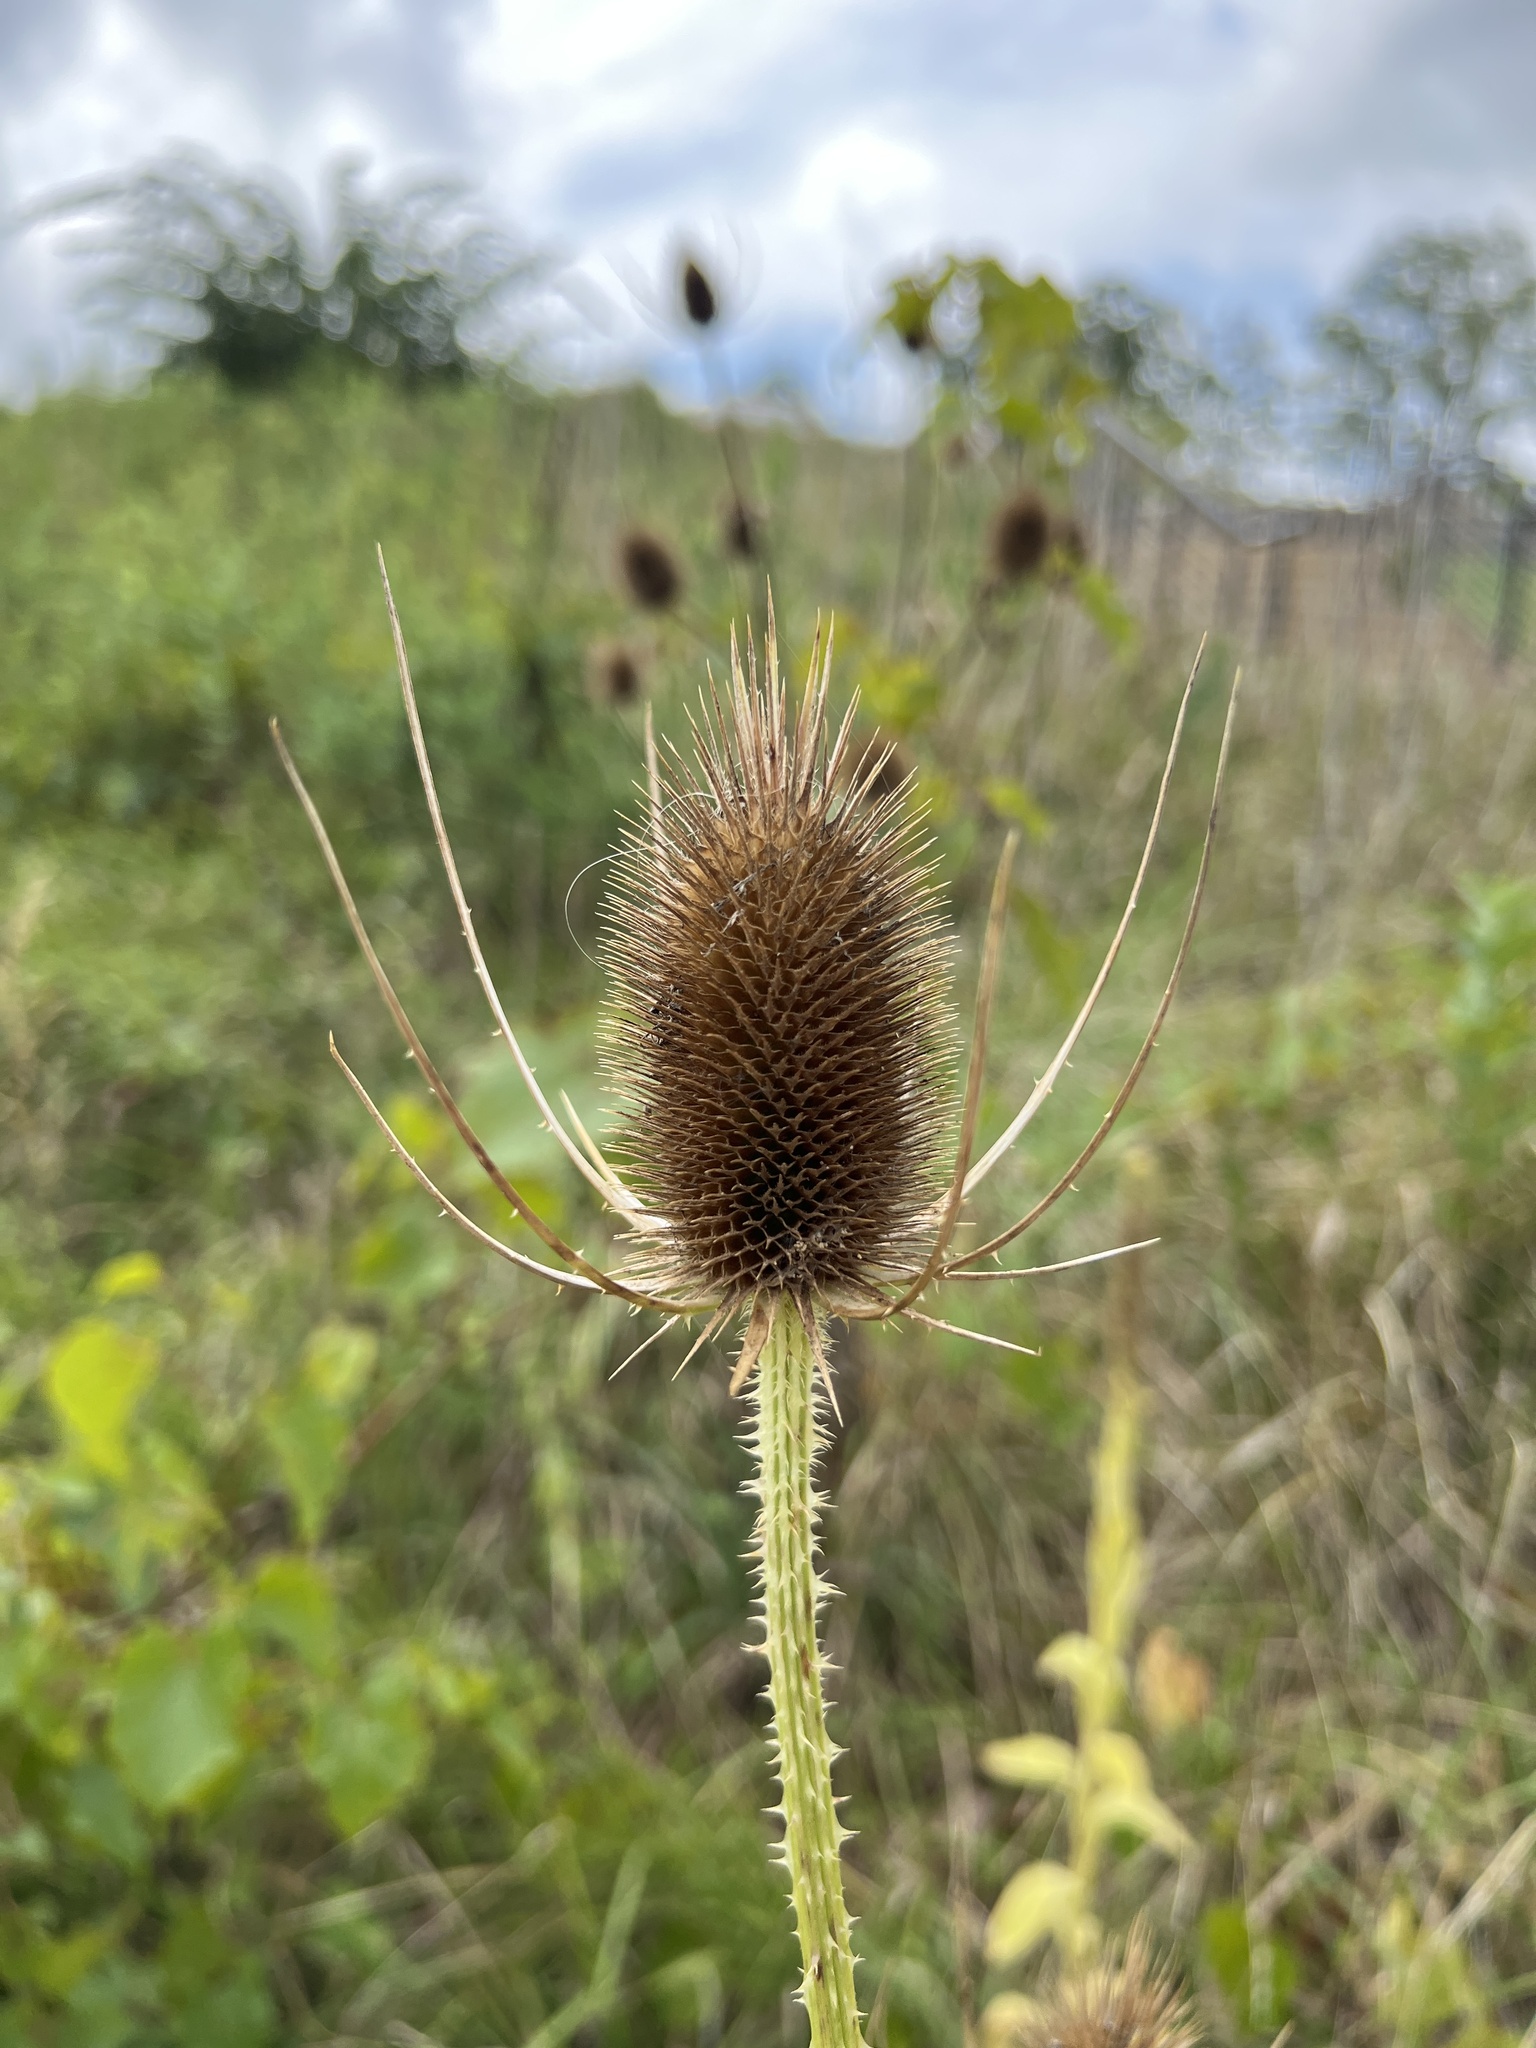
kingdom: Plantae
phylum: Tracheophyta
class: Magnoliopsida
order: Dipsacales
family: Caprifoliaceae
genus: Dipsacus
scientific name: Dipsacus fullonum
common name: Teasel
